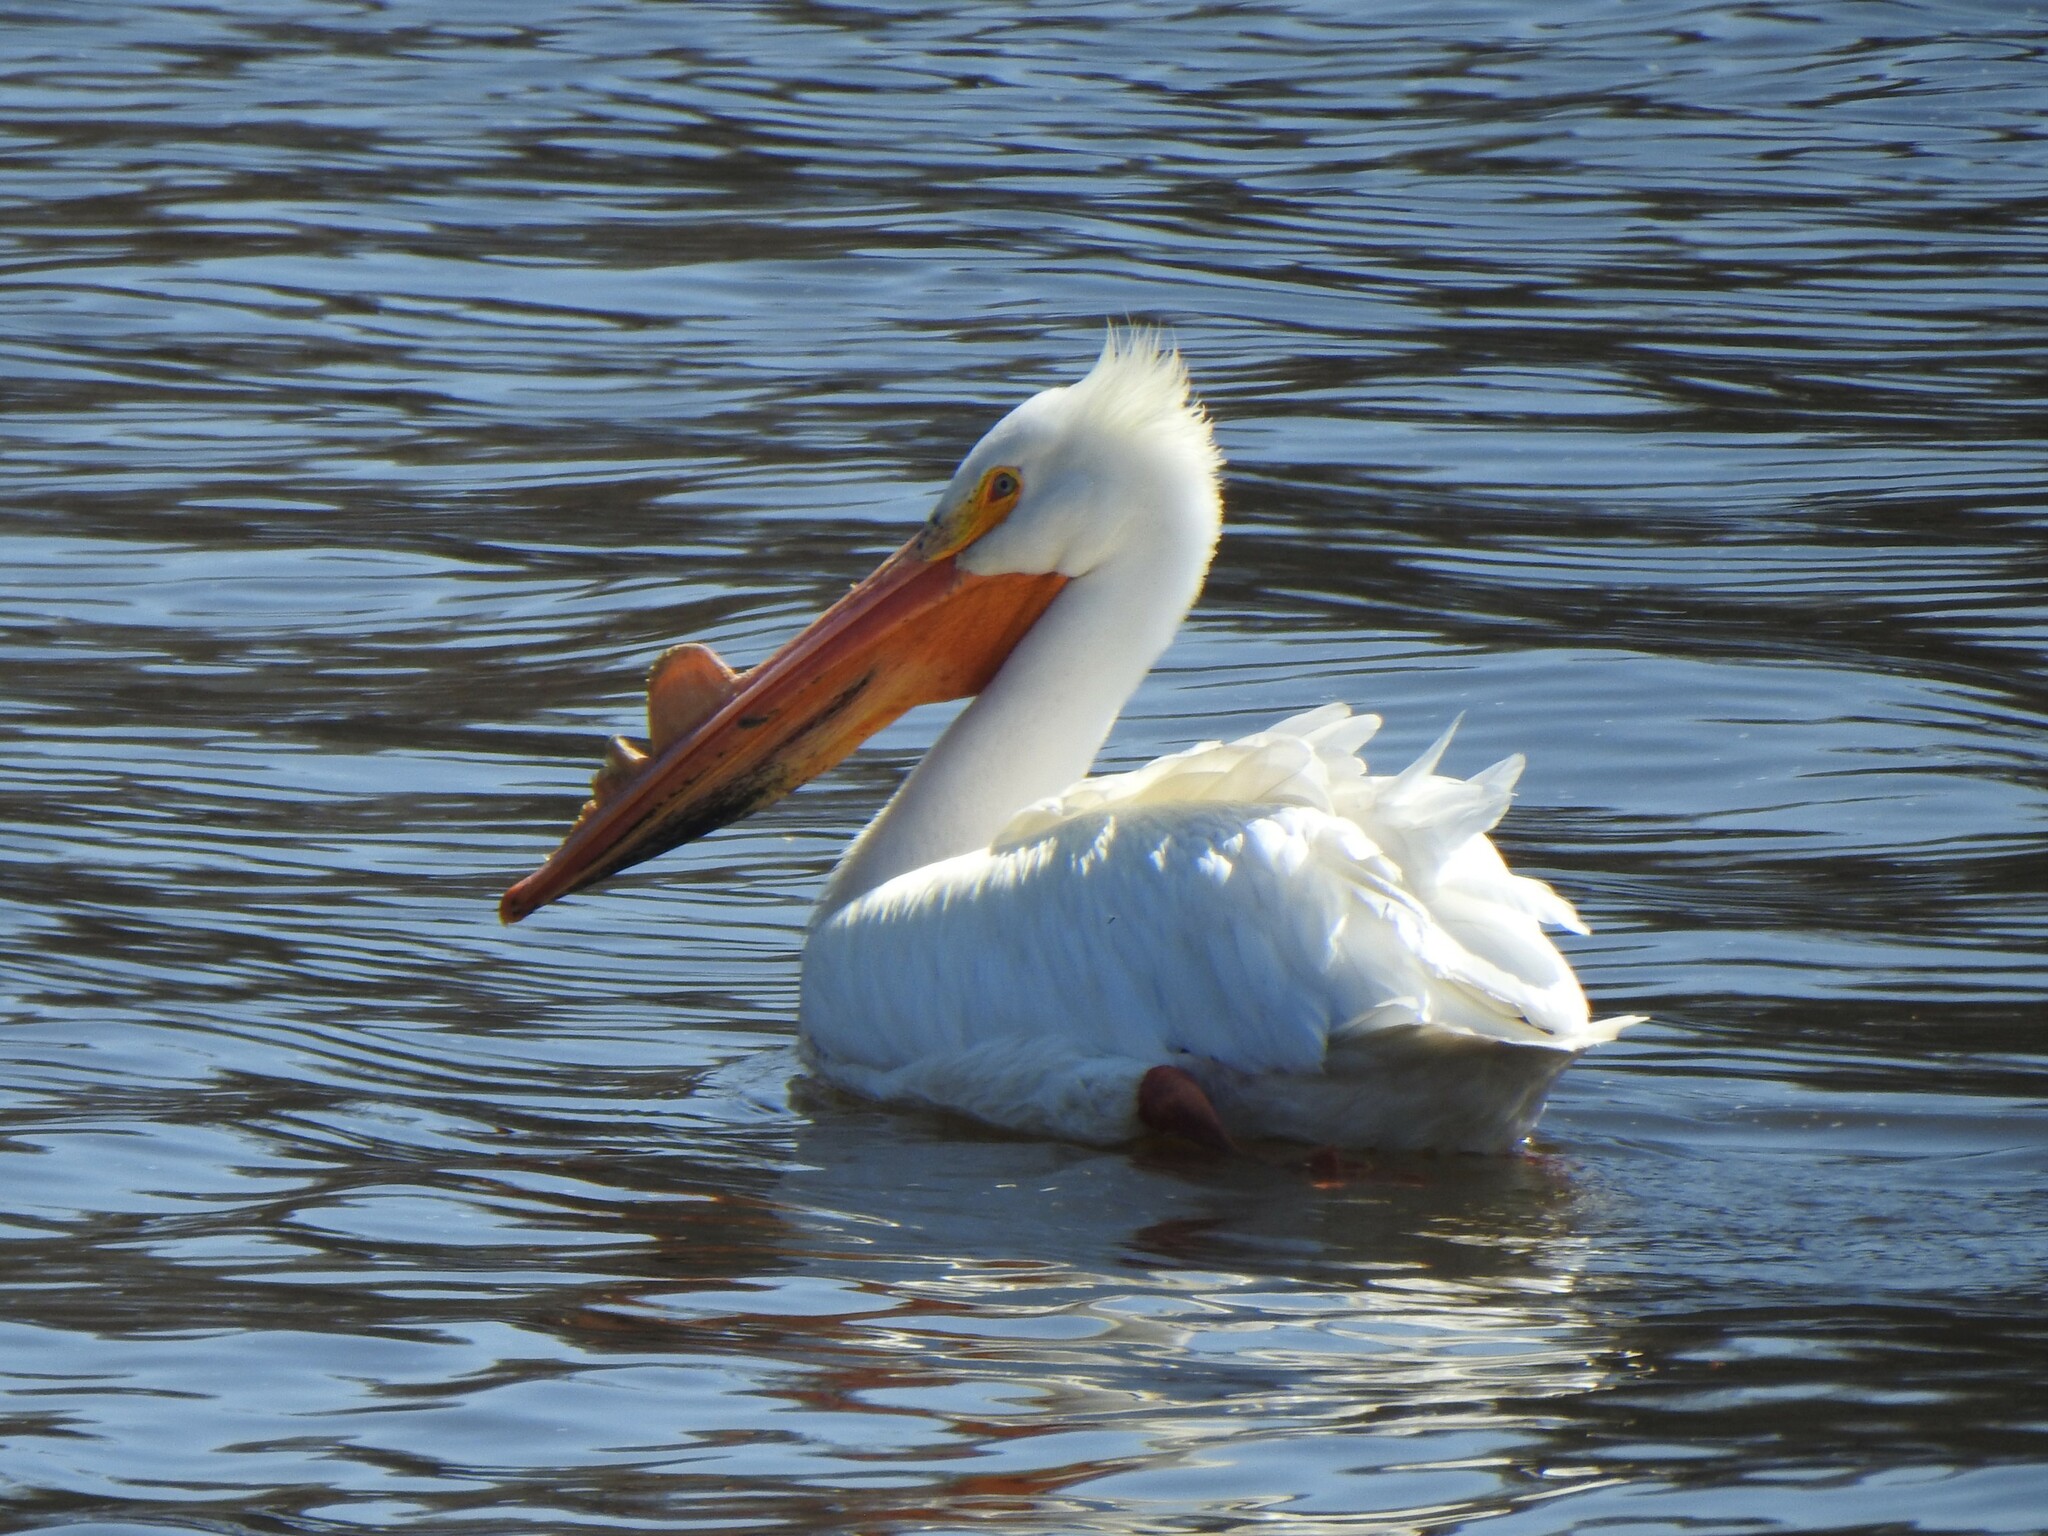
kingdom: Animalia
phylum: Chordata
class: Aves
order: Pelecaniformes
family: Pelecanidae
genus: Pelecanus
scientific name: Pelecanus erythrorhynchos
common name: American white pelican
